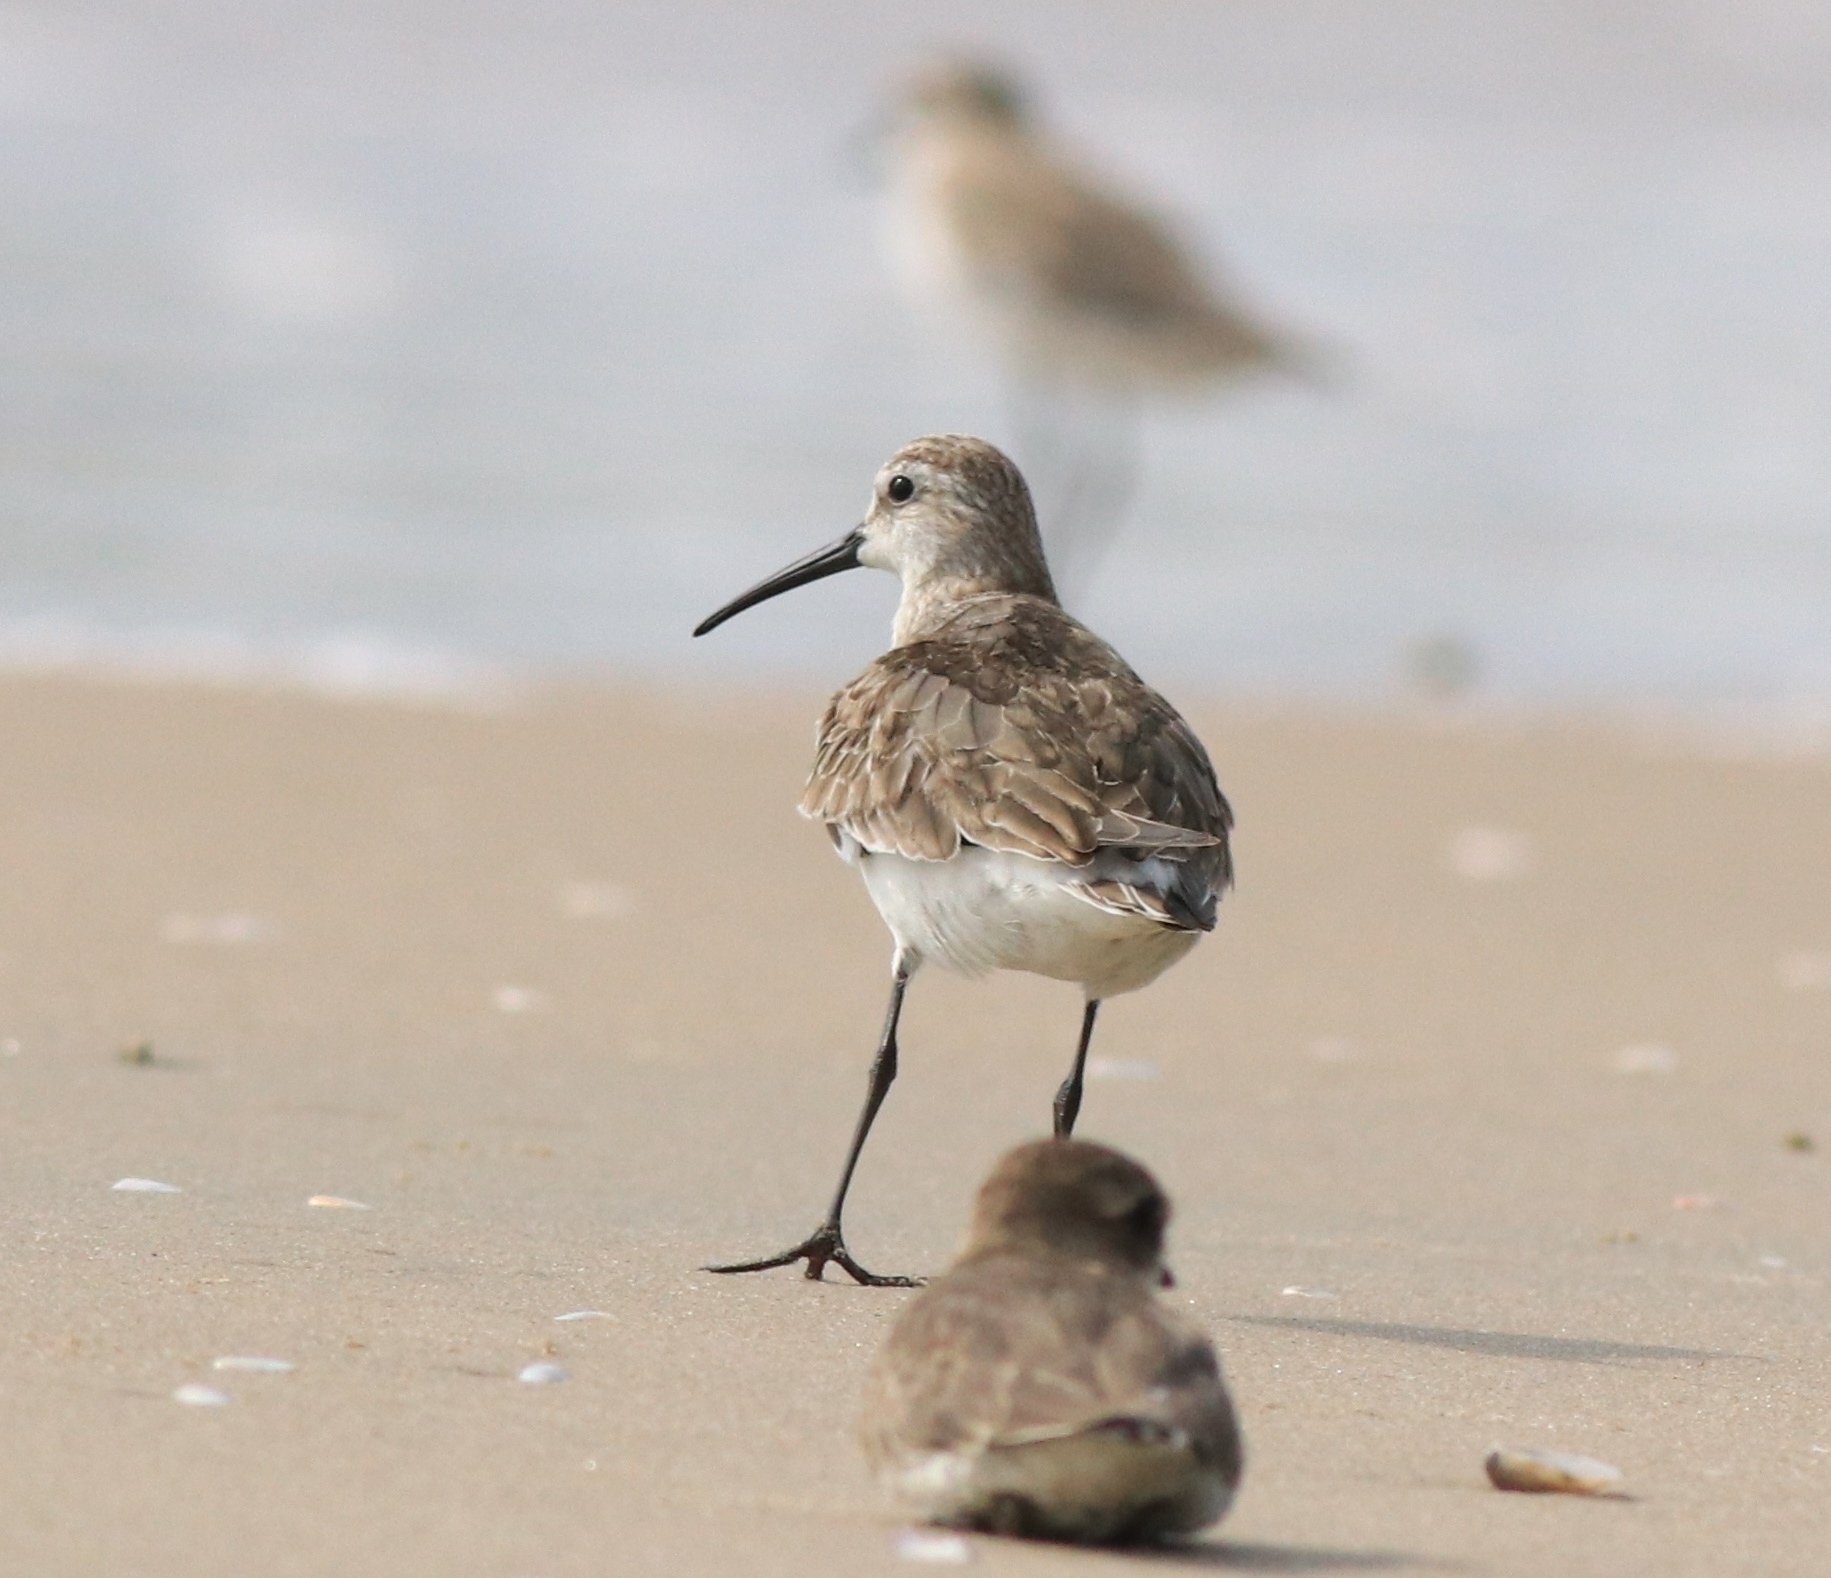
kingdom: Animalia
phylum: Chordata
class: Aves
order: Charadriiformes
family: Scolopacidae
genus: Calidris
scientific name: Calidris ferruginea
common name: Curlew sandpiper
